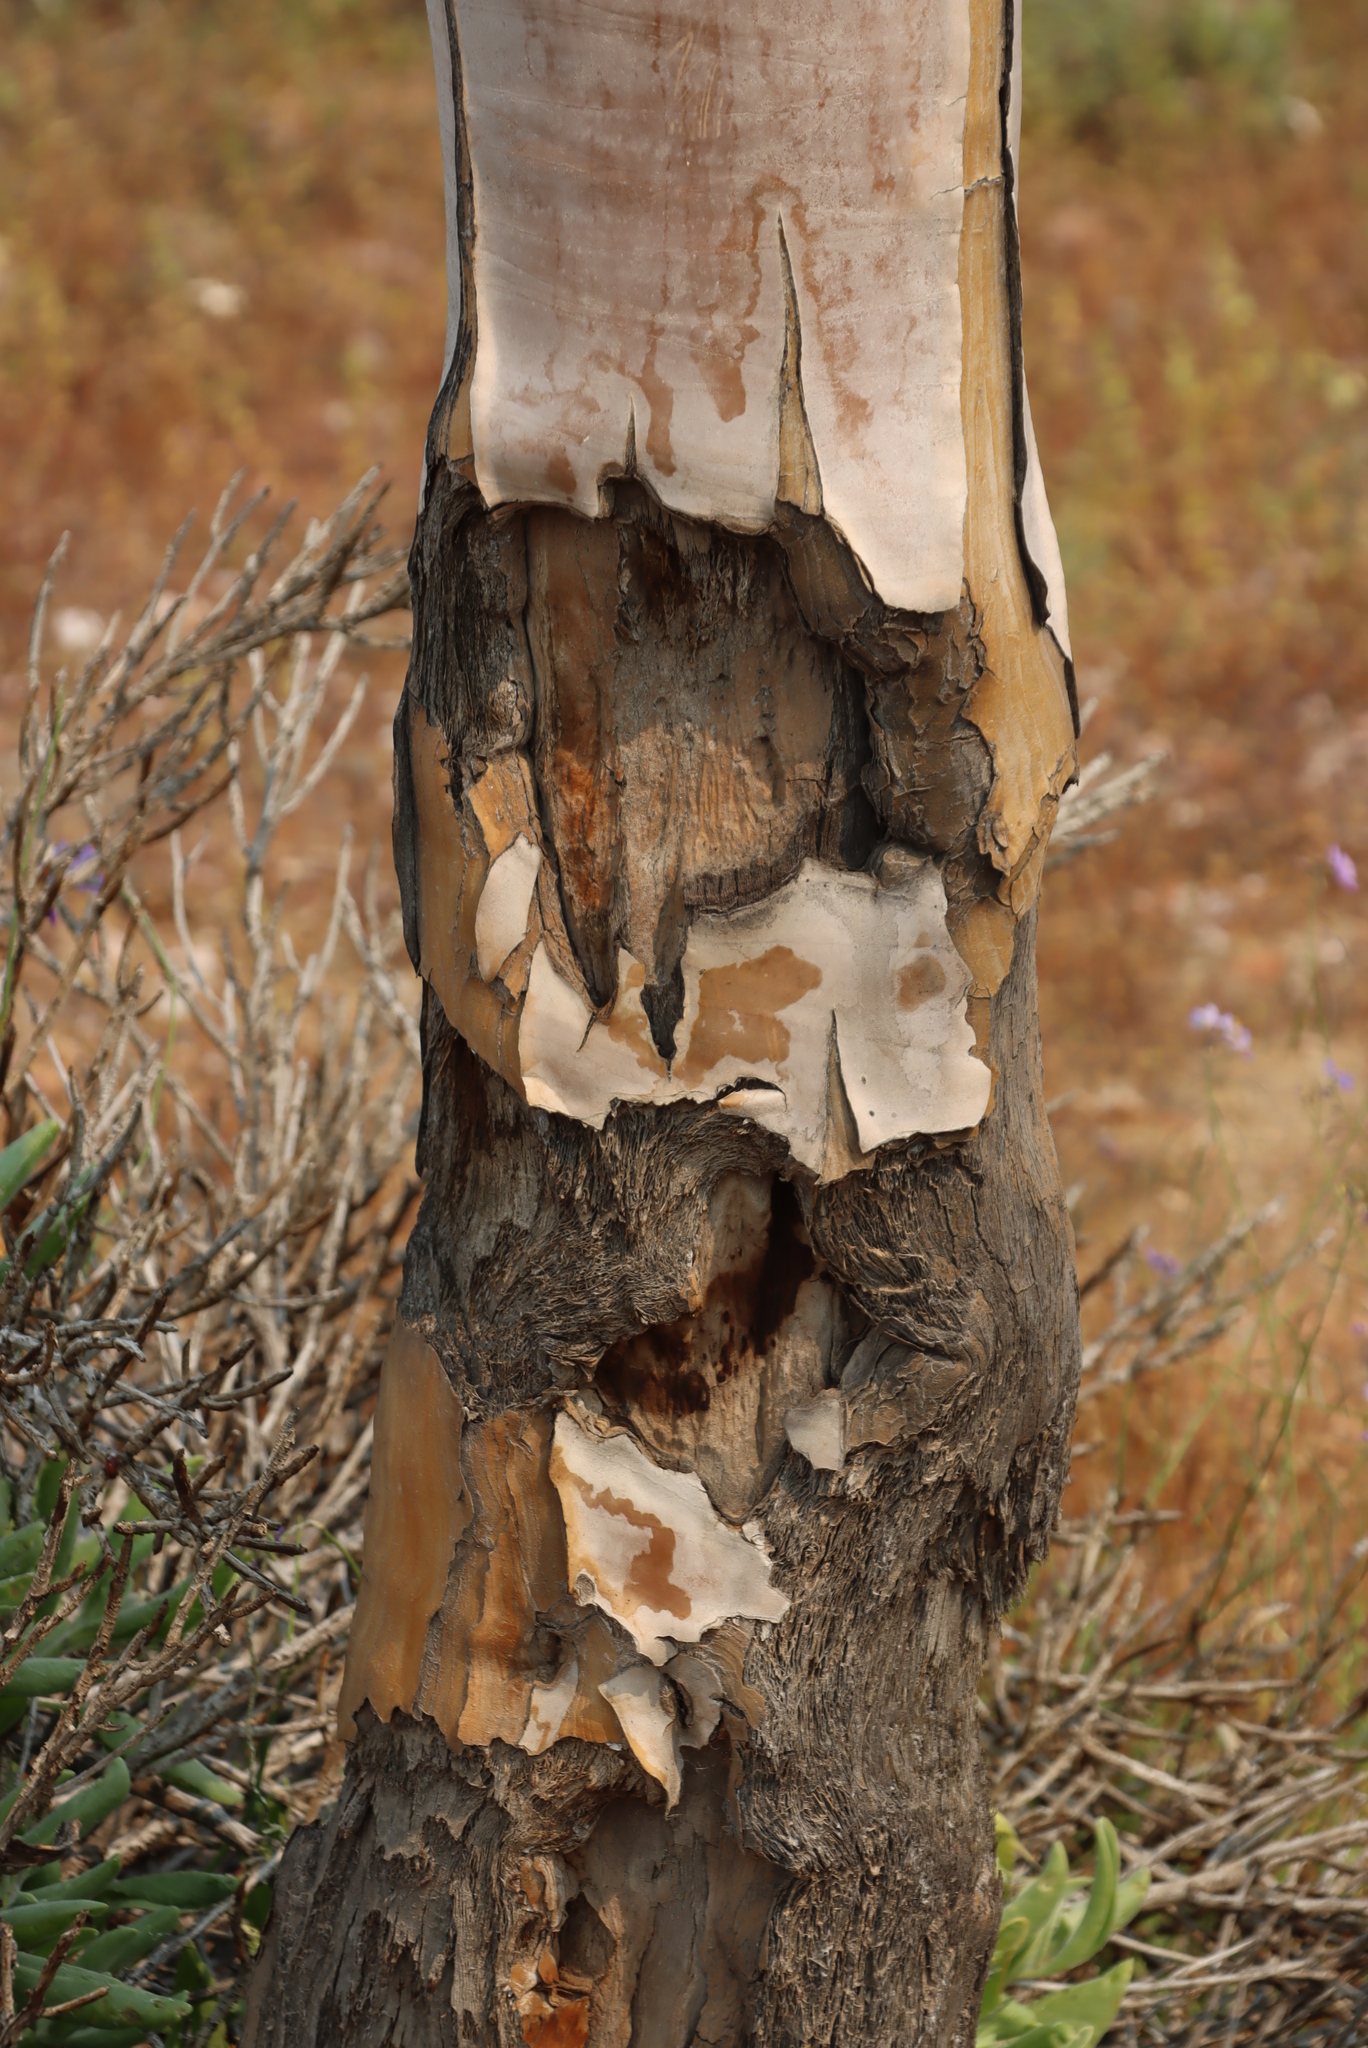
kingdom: Plantae
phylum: Tracheophyta
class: Liliopsida
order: Asparagales
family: Asphodelaceae
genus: Aloidendron
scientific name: Aloidendron pillansii
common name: Bastard quiver tree
